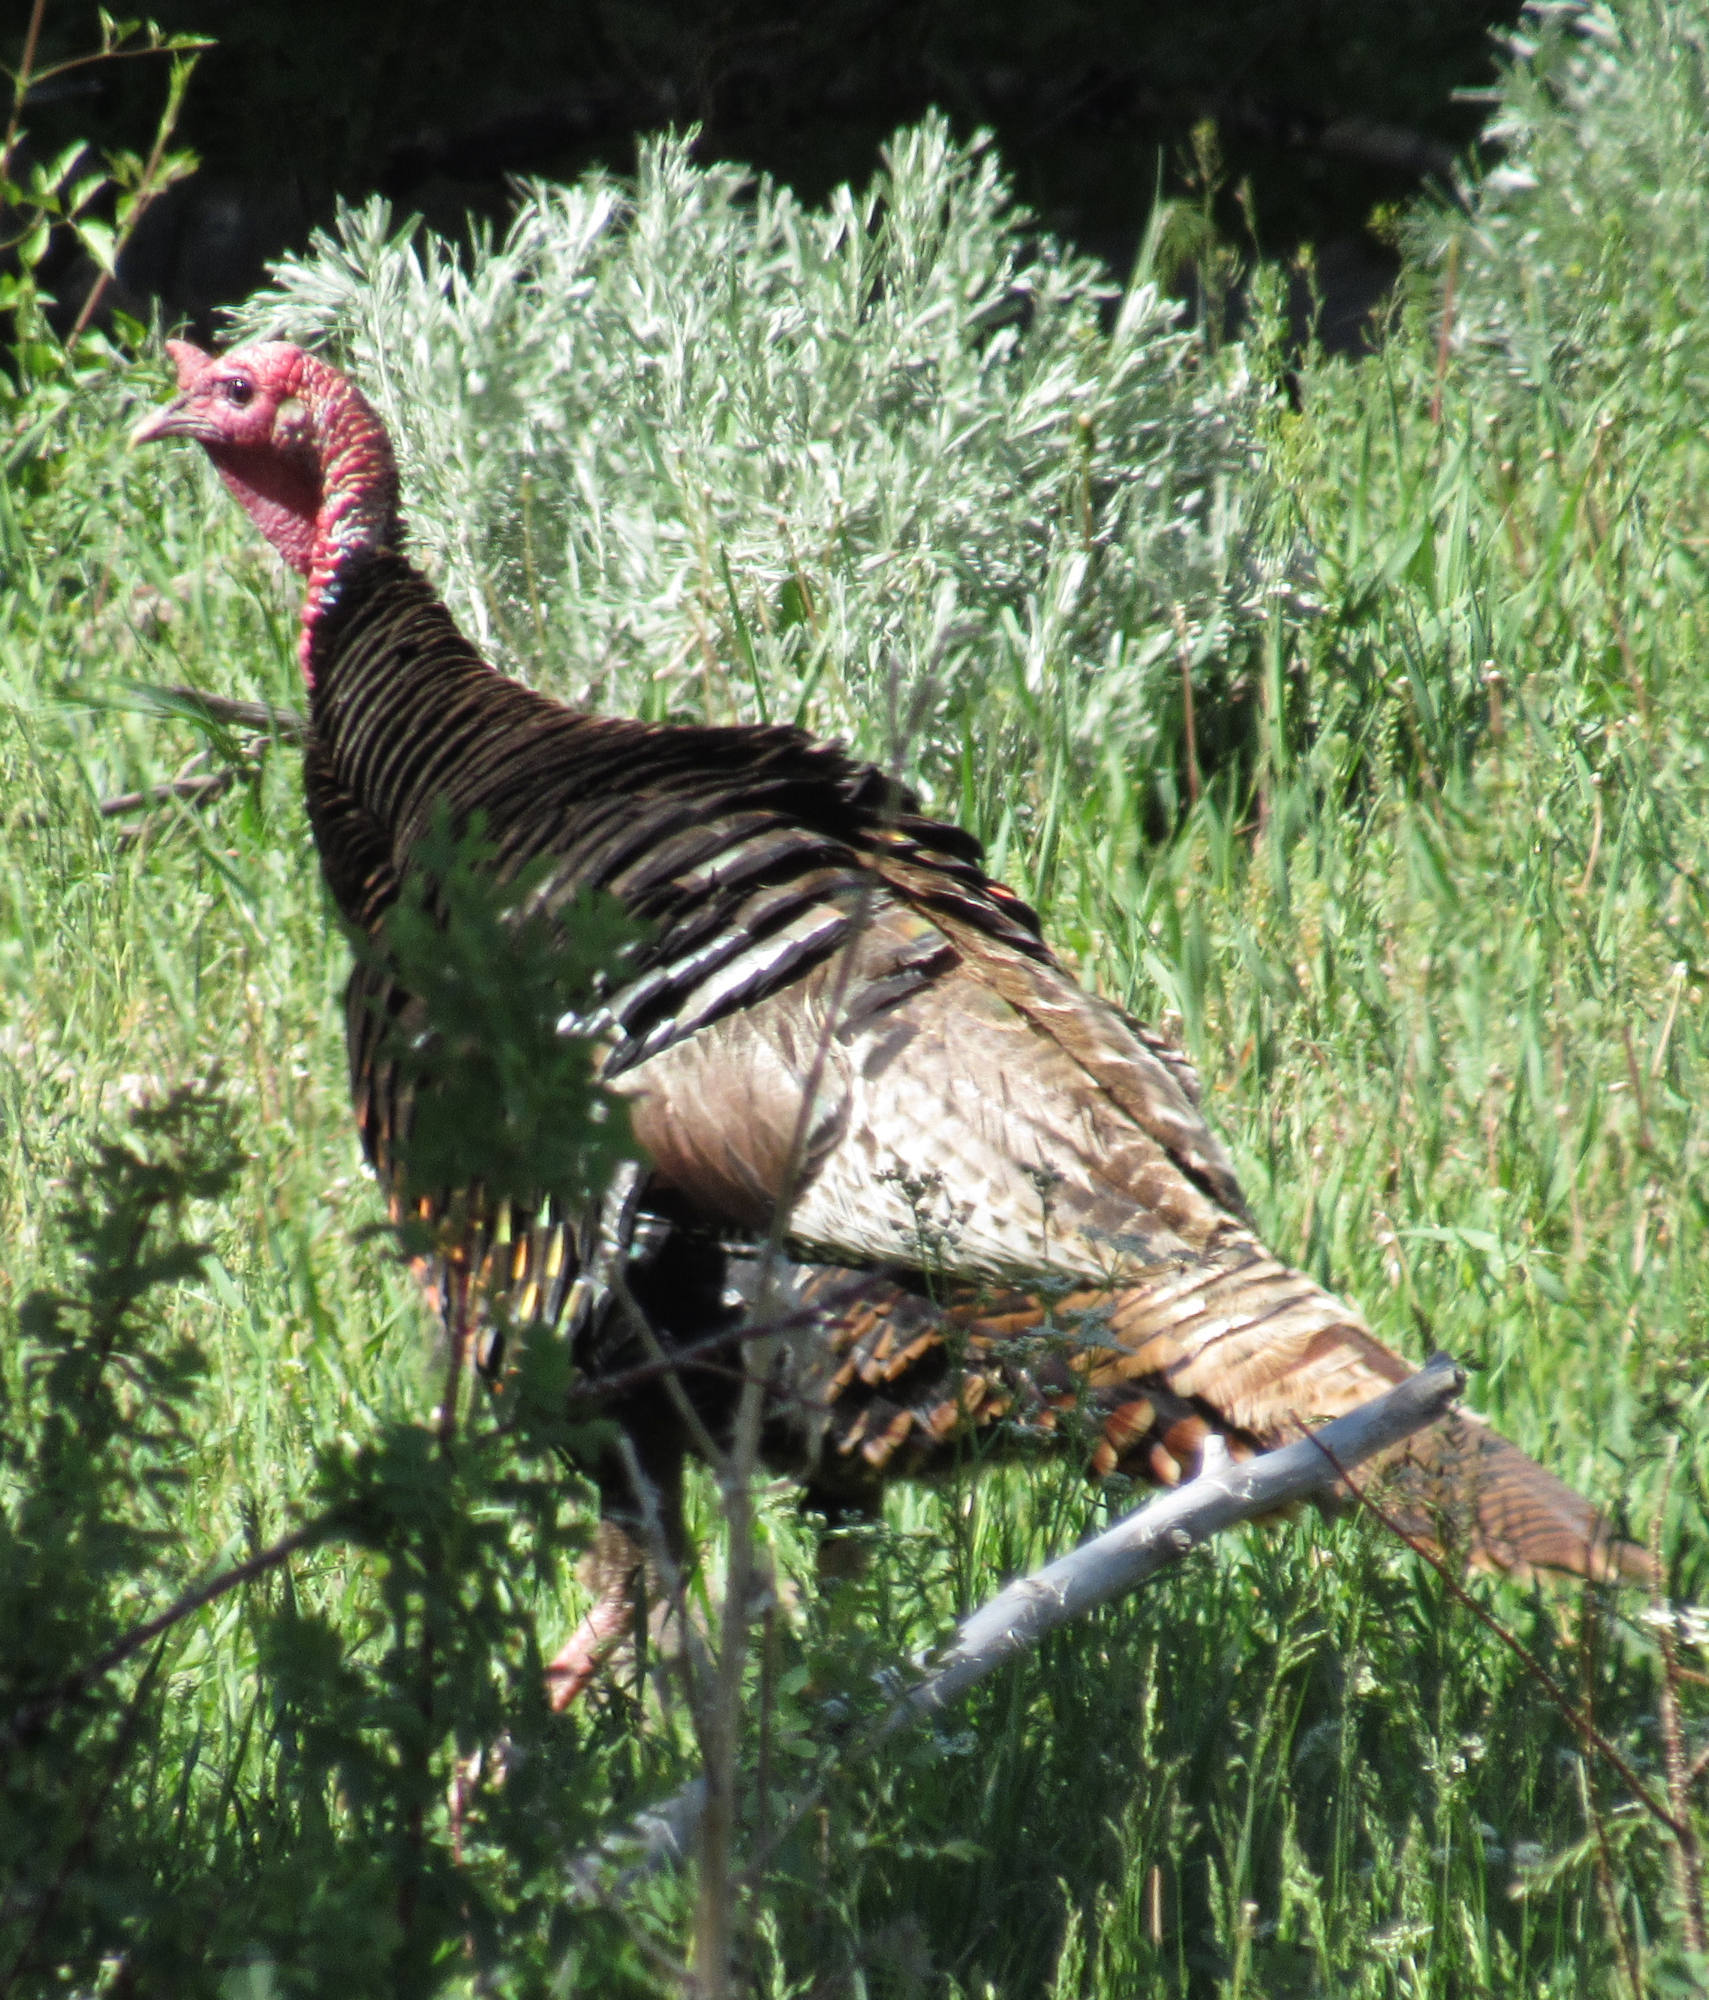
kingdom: Animalia
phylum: Chordata
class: Aves
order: Galliformes
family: Phasianidae
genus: Meleagris
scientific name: Meleagris gallopavo
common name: Wild turkey
